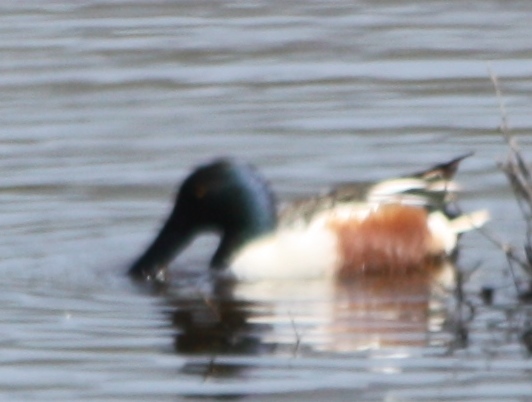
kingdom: Animalia
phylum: Chordata
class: Aves
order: Anseriformes
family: Anatidae
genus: Spatula
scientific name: Spatula clypeata
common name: Northern shoveler
